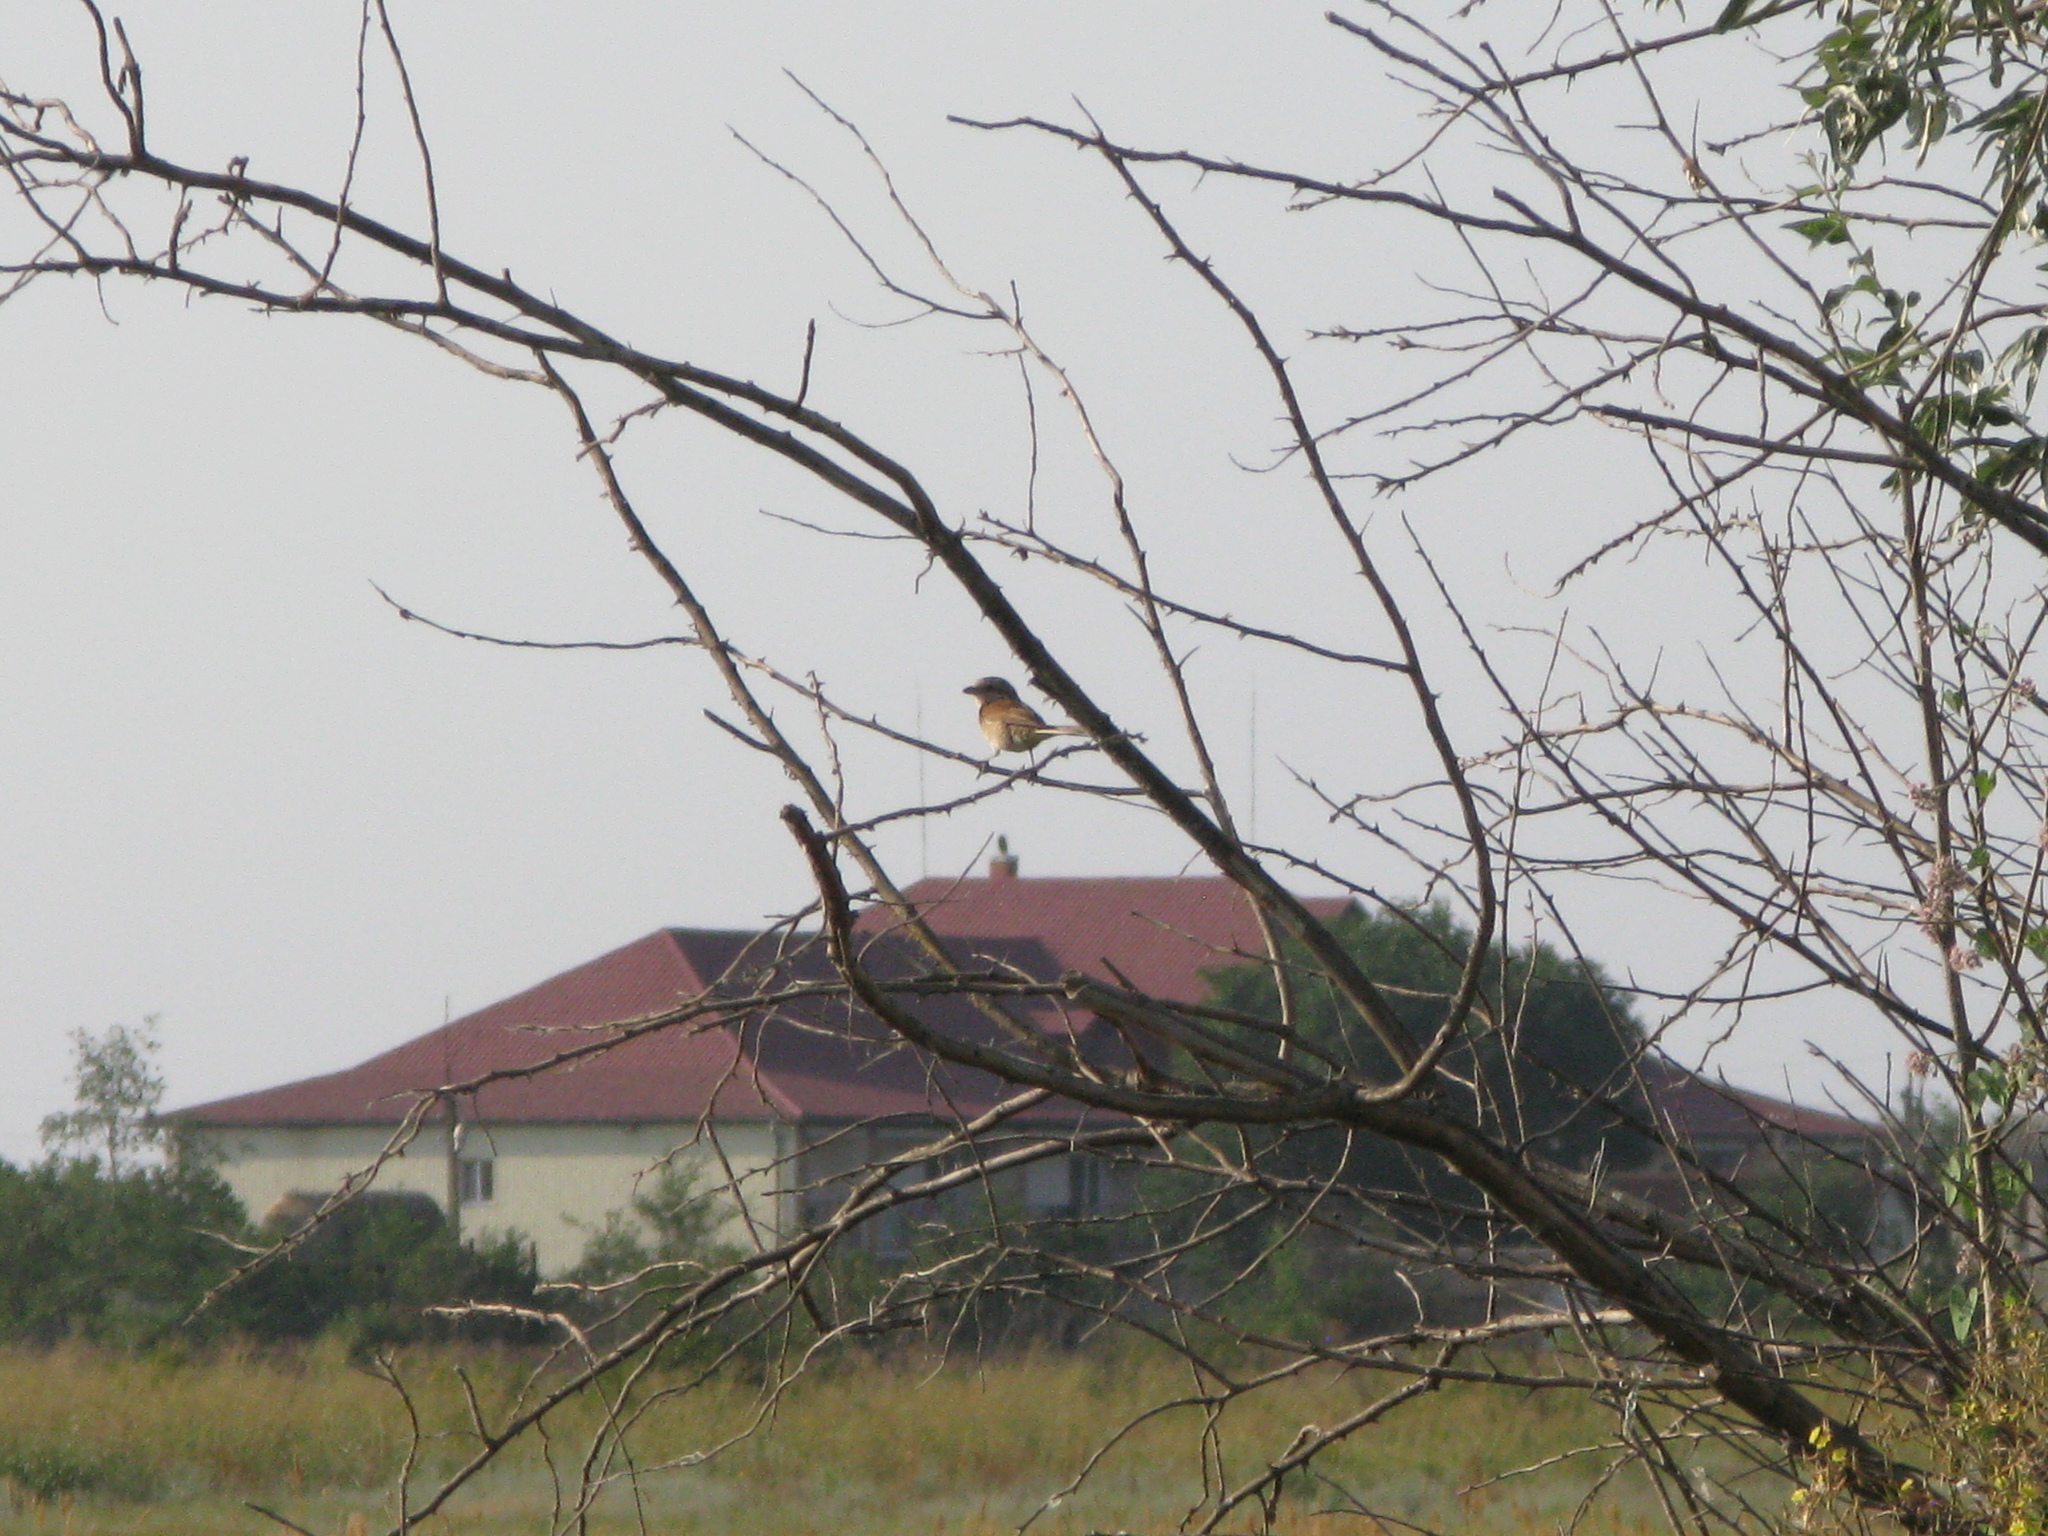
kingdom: Animalia
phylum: Chordata
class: Aves
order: Passeriformes
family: Laniidae
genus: Lanius
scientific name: Lanius collurio
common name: Red-backed shrike
